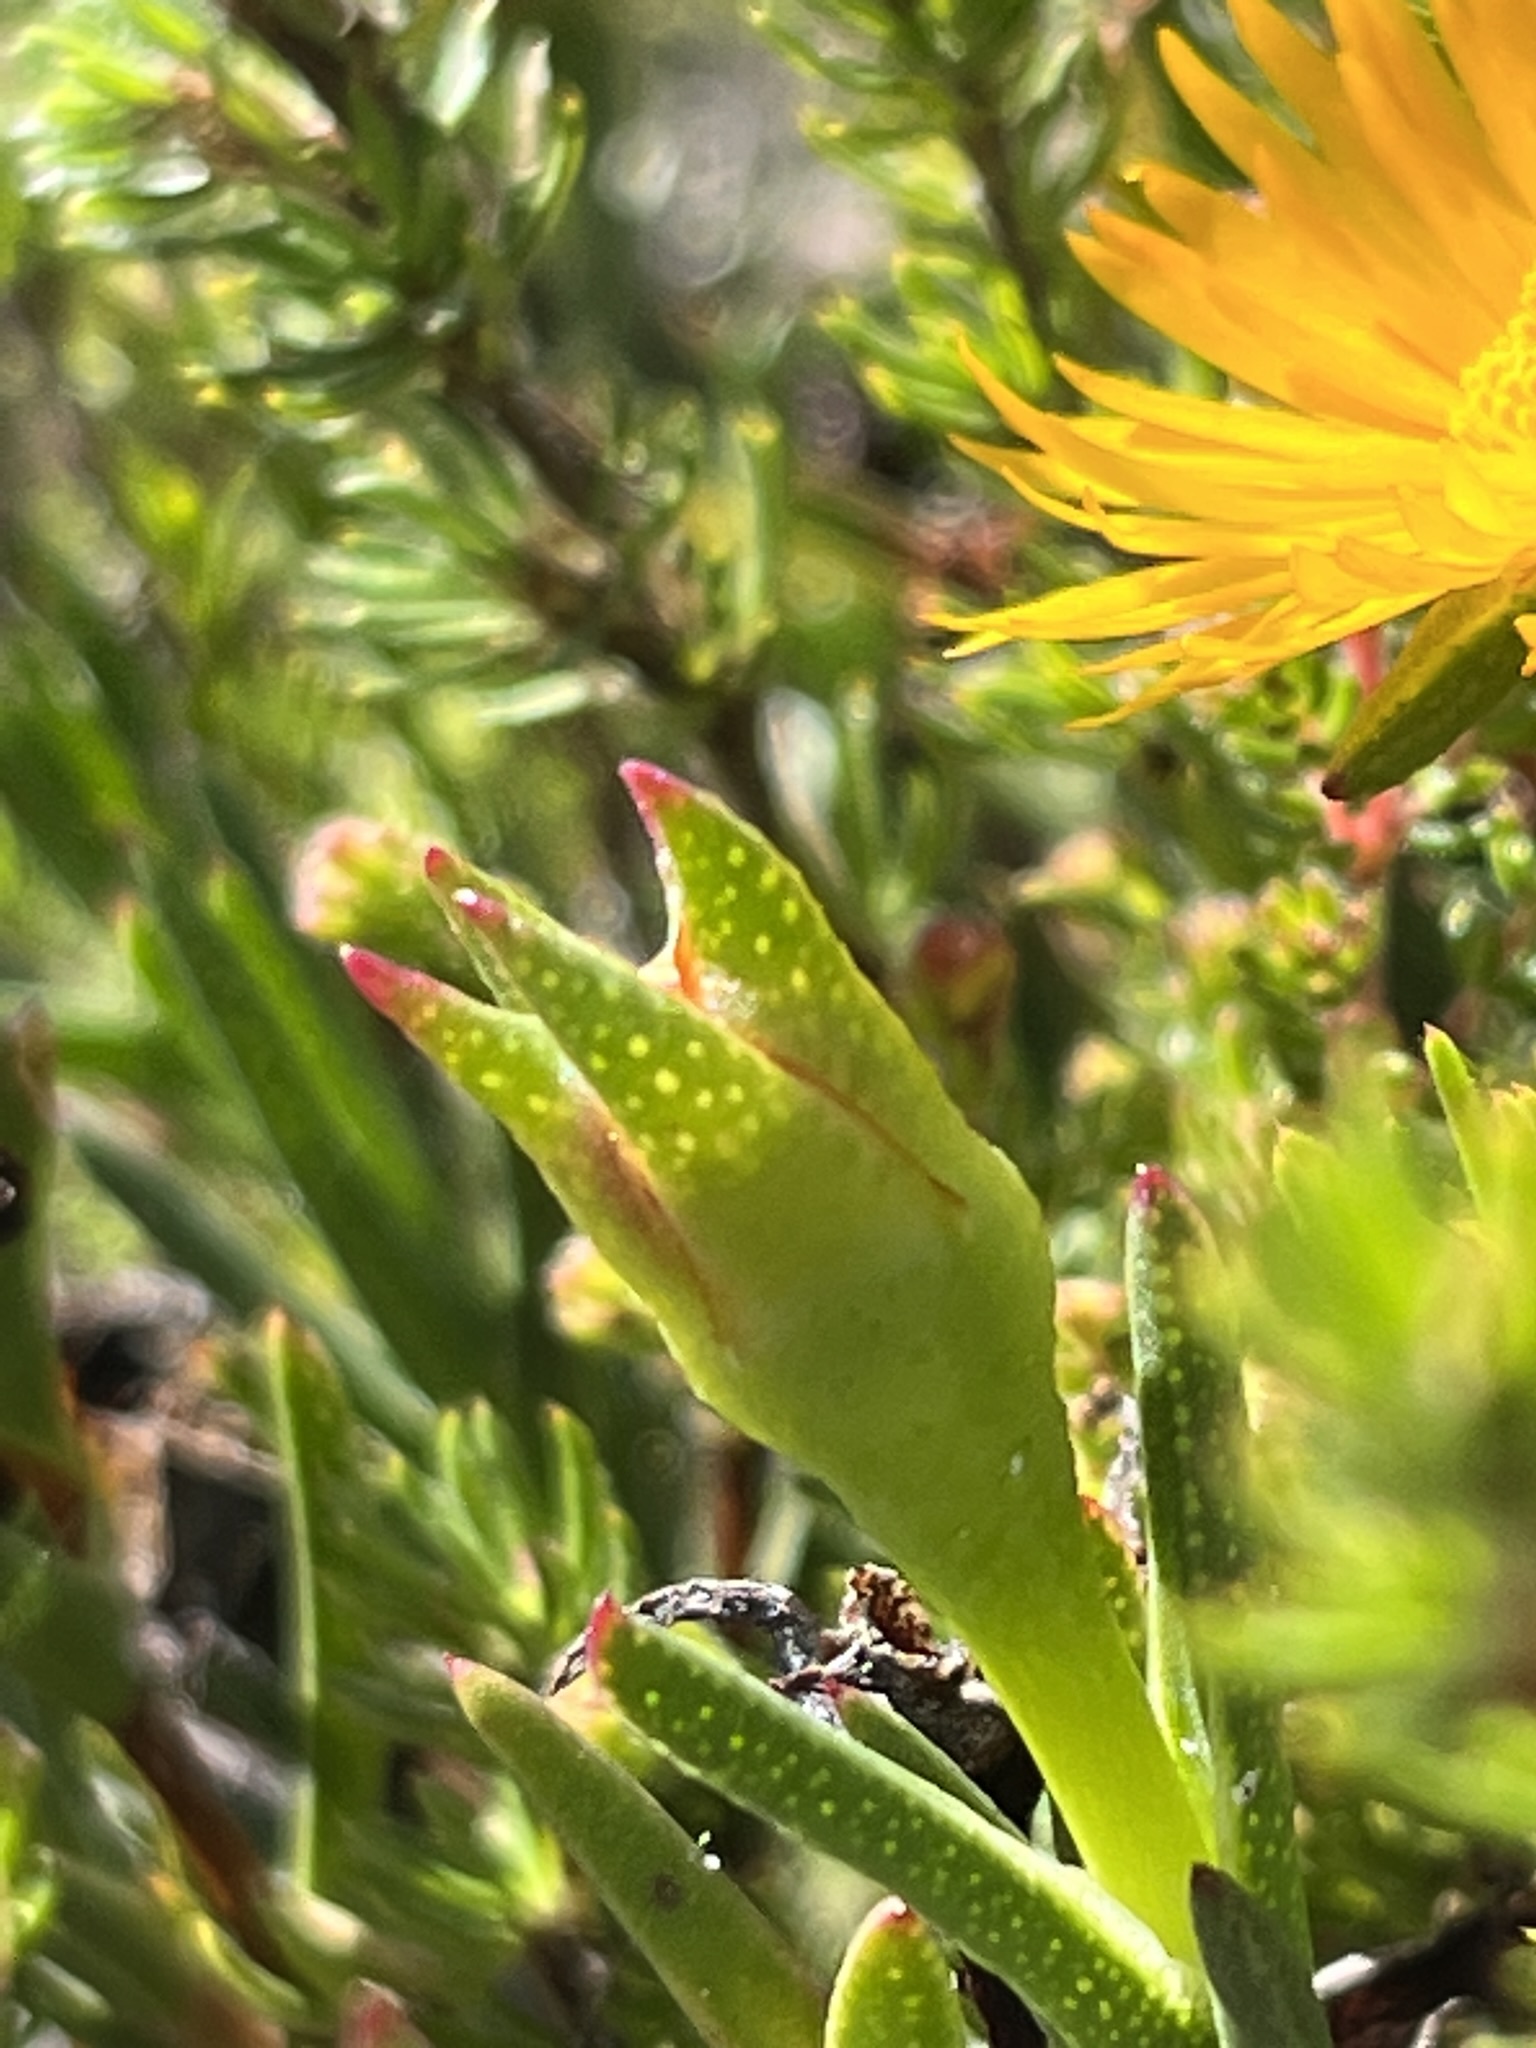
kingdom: Plantae
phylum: Tracheophyta
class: Magnoliopsida
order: Caryophyllales
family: Aizoaceae
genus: Lampranthus
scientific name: Lampranthus bicolor
